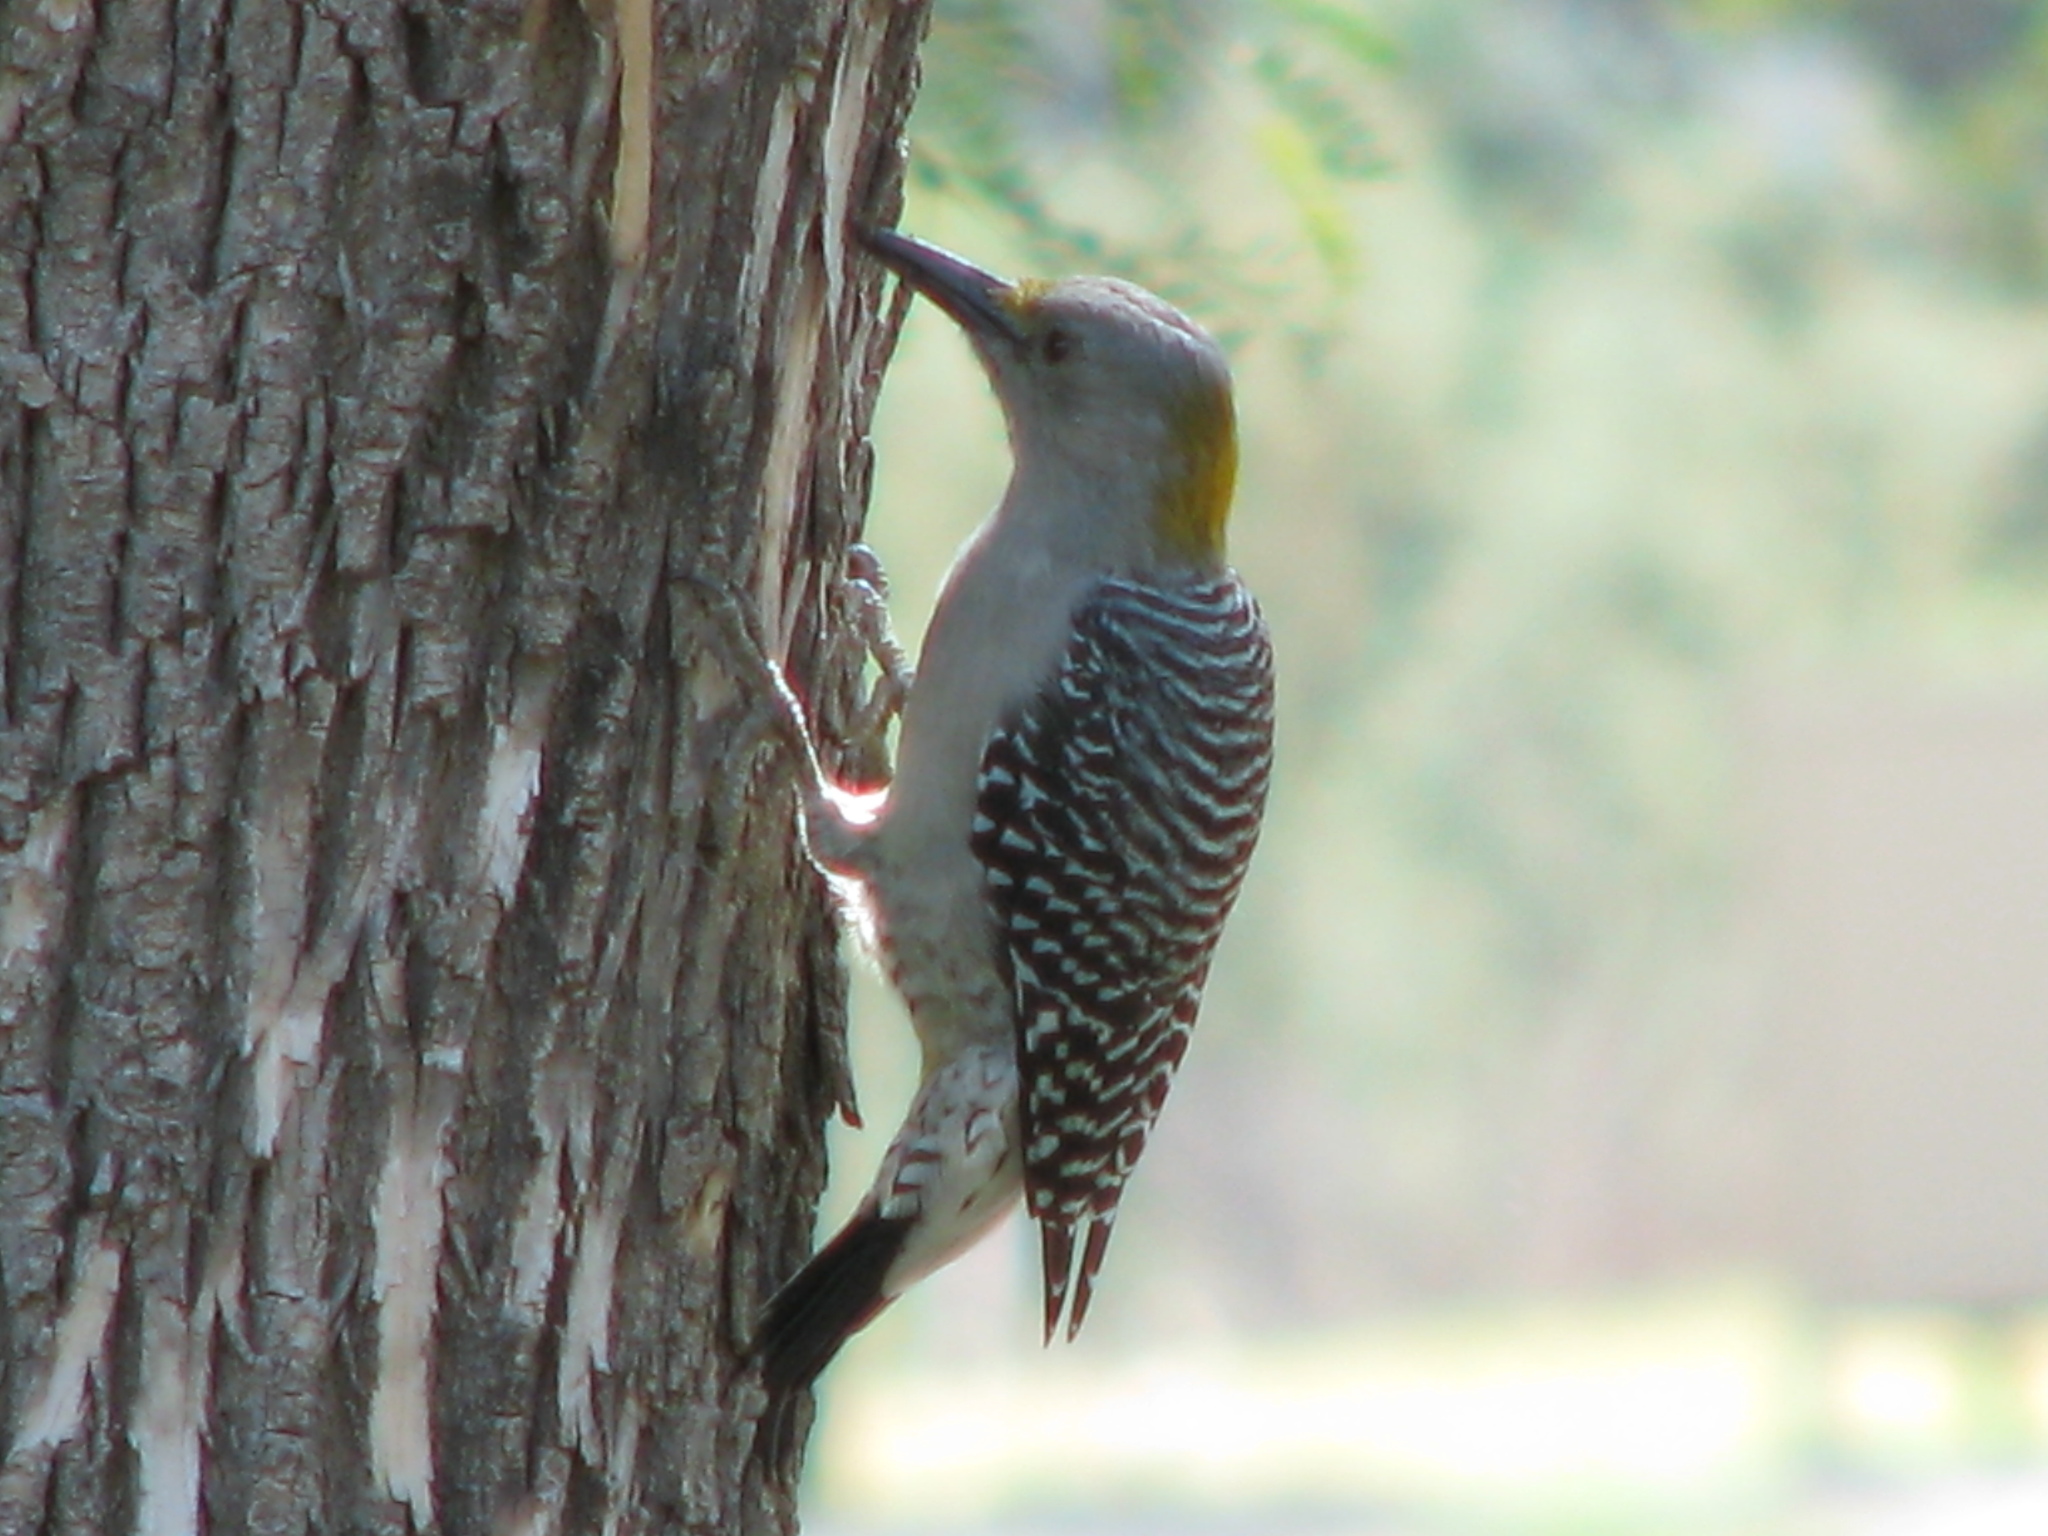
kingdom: Animalia
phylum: Chordata
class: Aves
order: Piciformes
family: Picidae
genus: Melanerpes
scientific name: Melanerpes aurifrons
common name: Golden-fronted woodpecker
